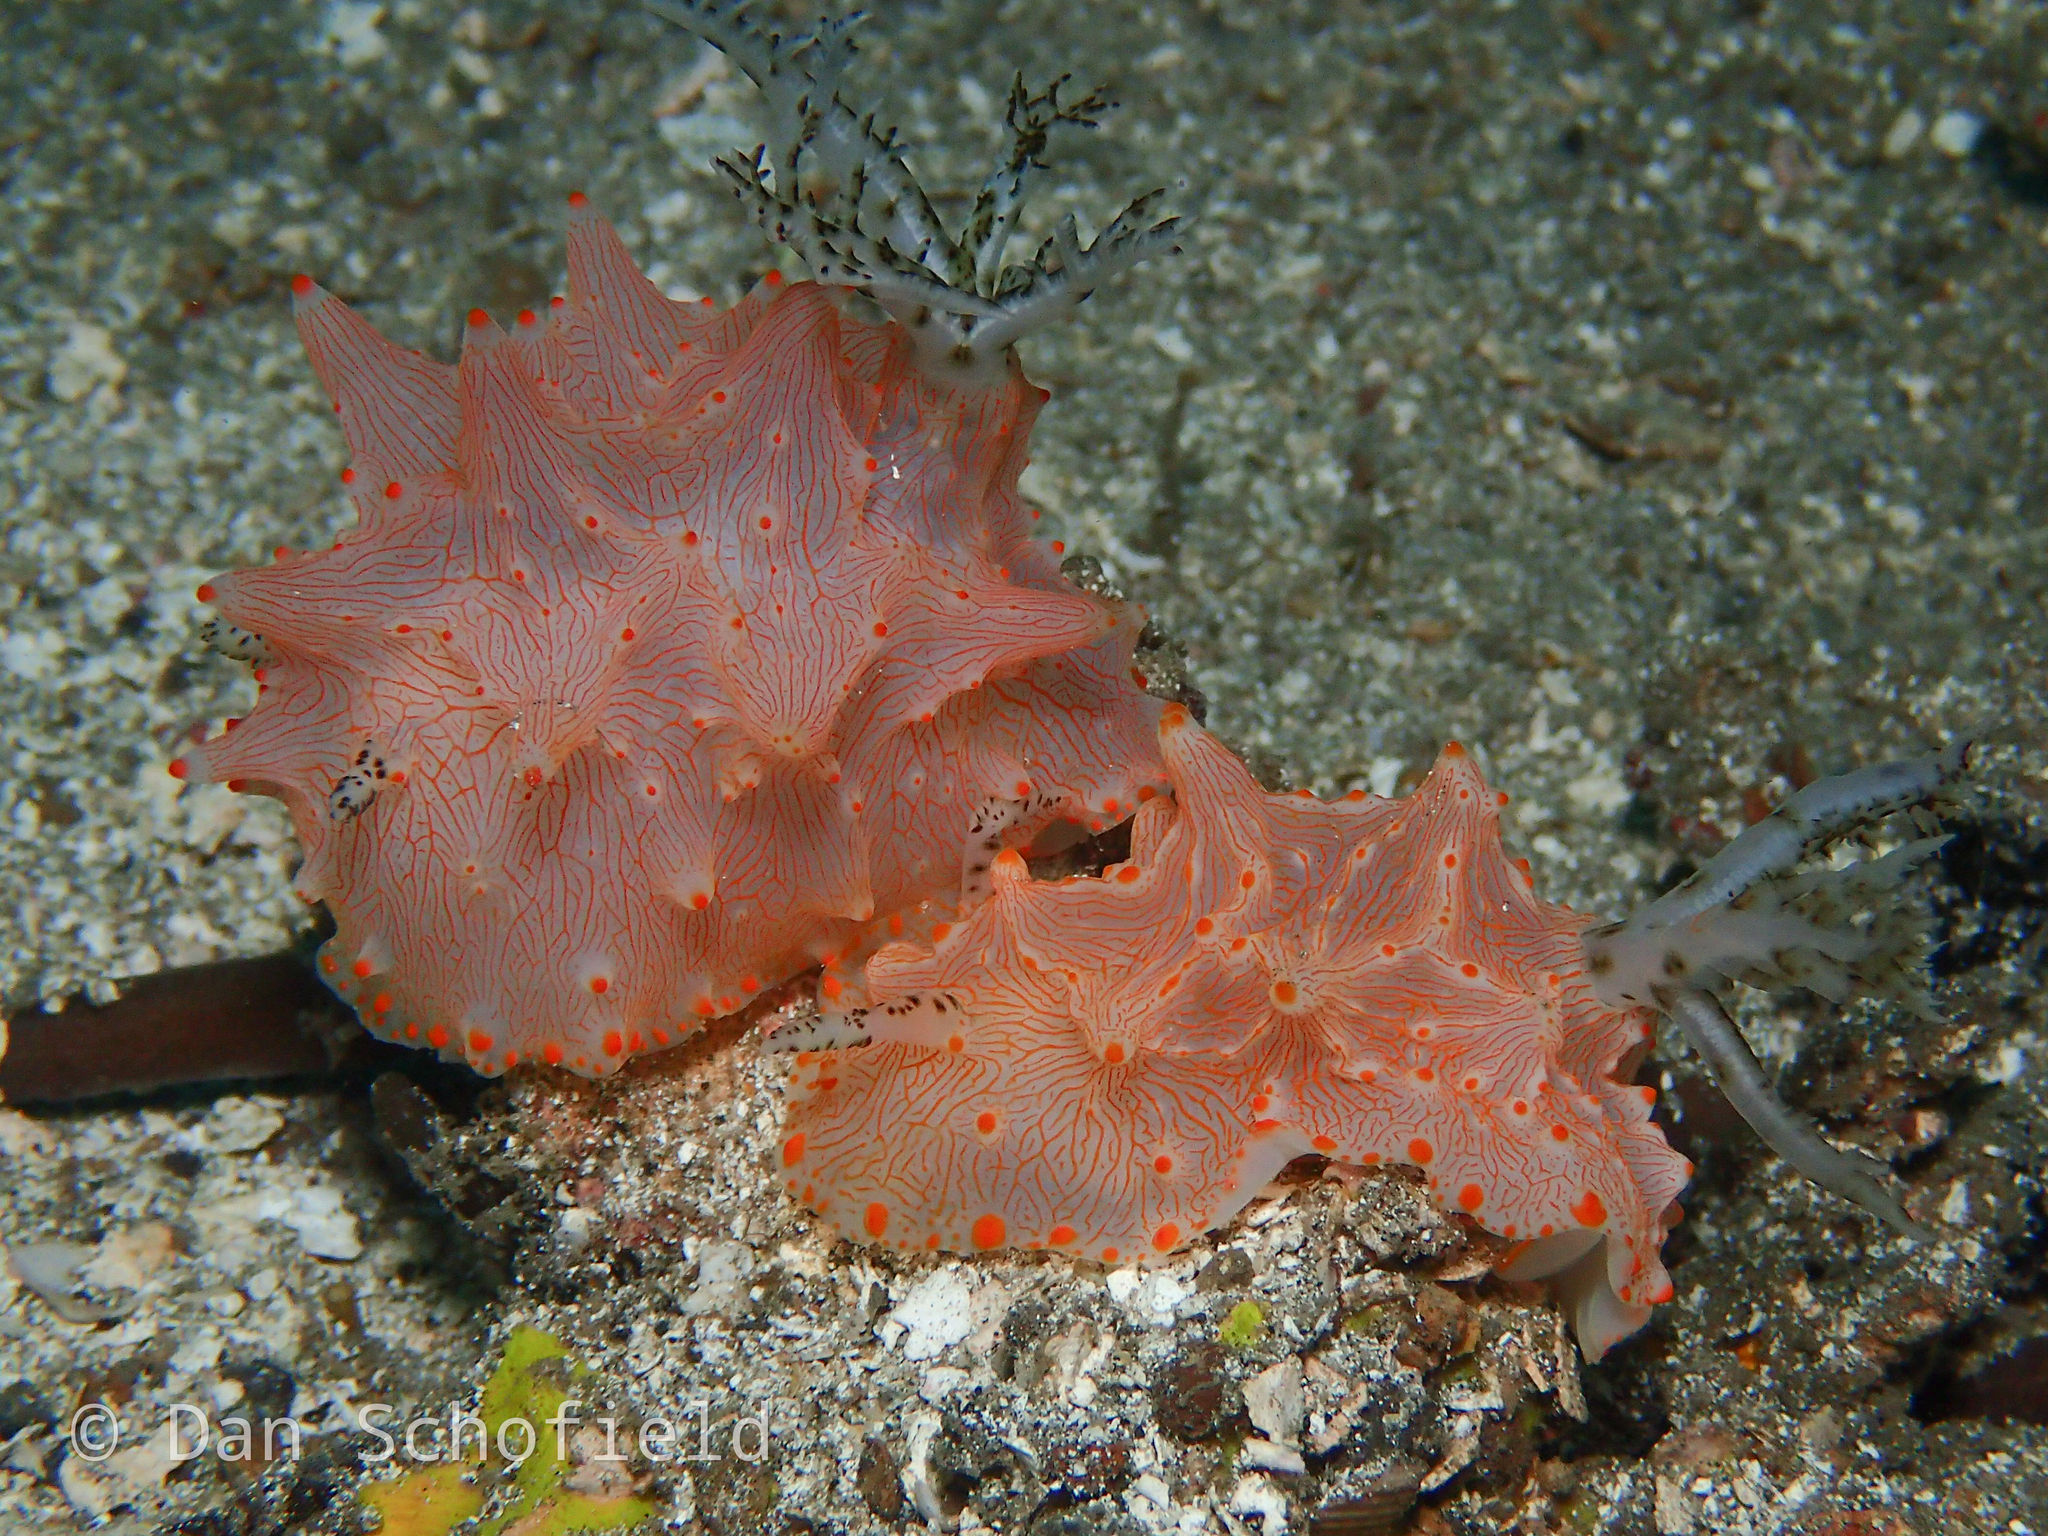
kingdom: Animalia
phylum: Mollusca
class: Gastropoda
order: Nudibranchia
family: Discodorididae
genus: Halgerda
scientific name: Halgerda batangas
